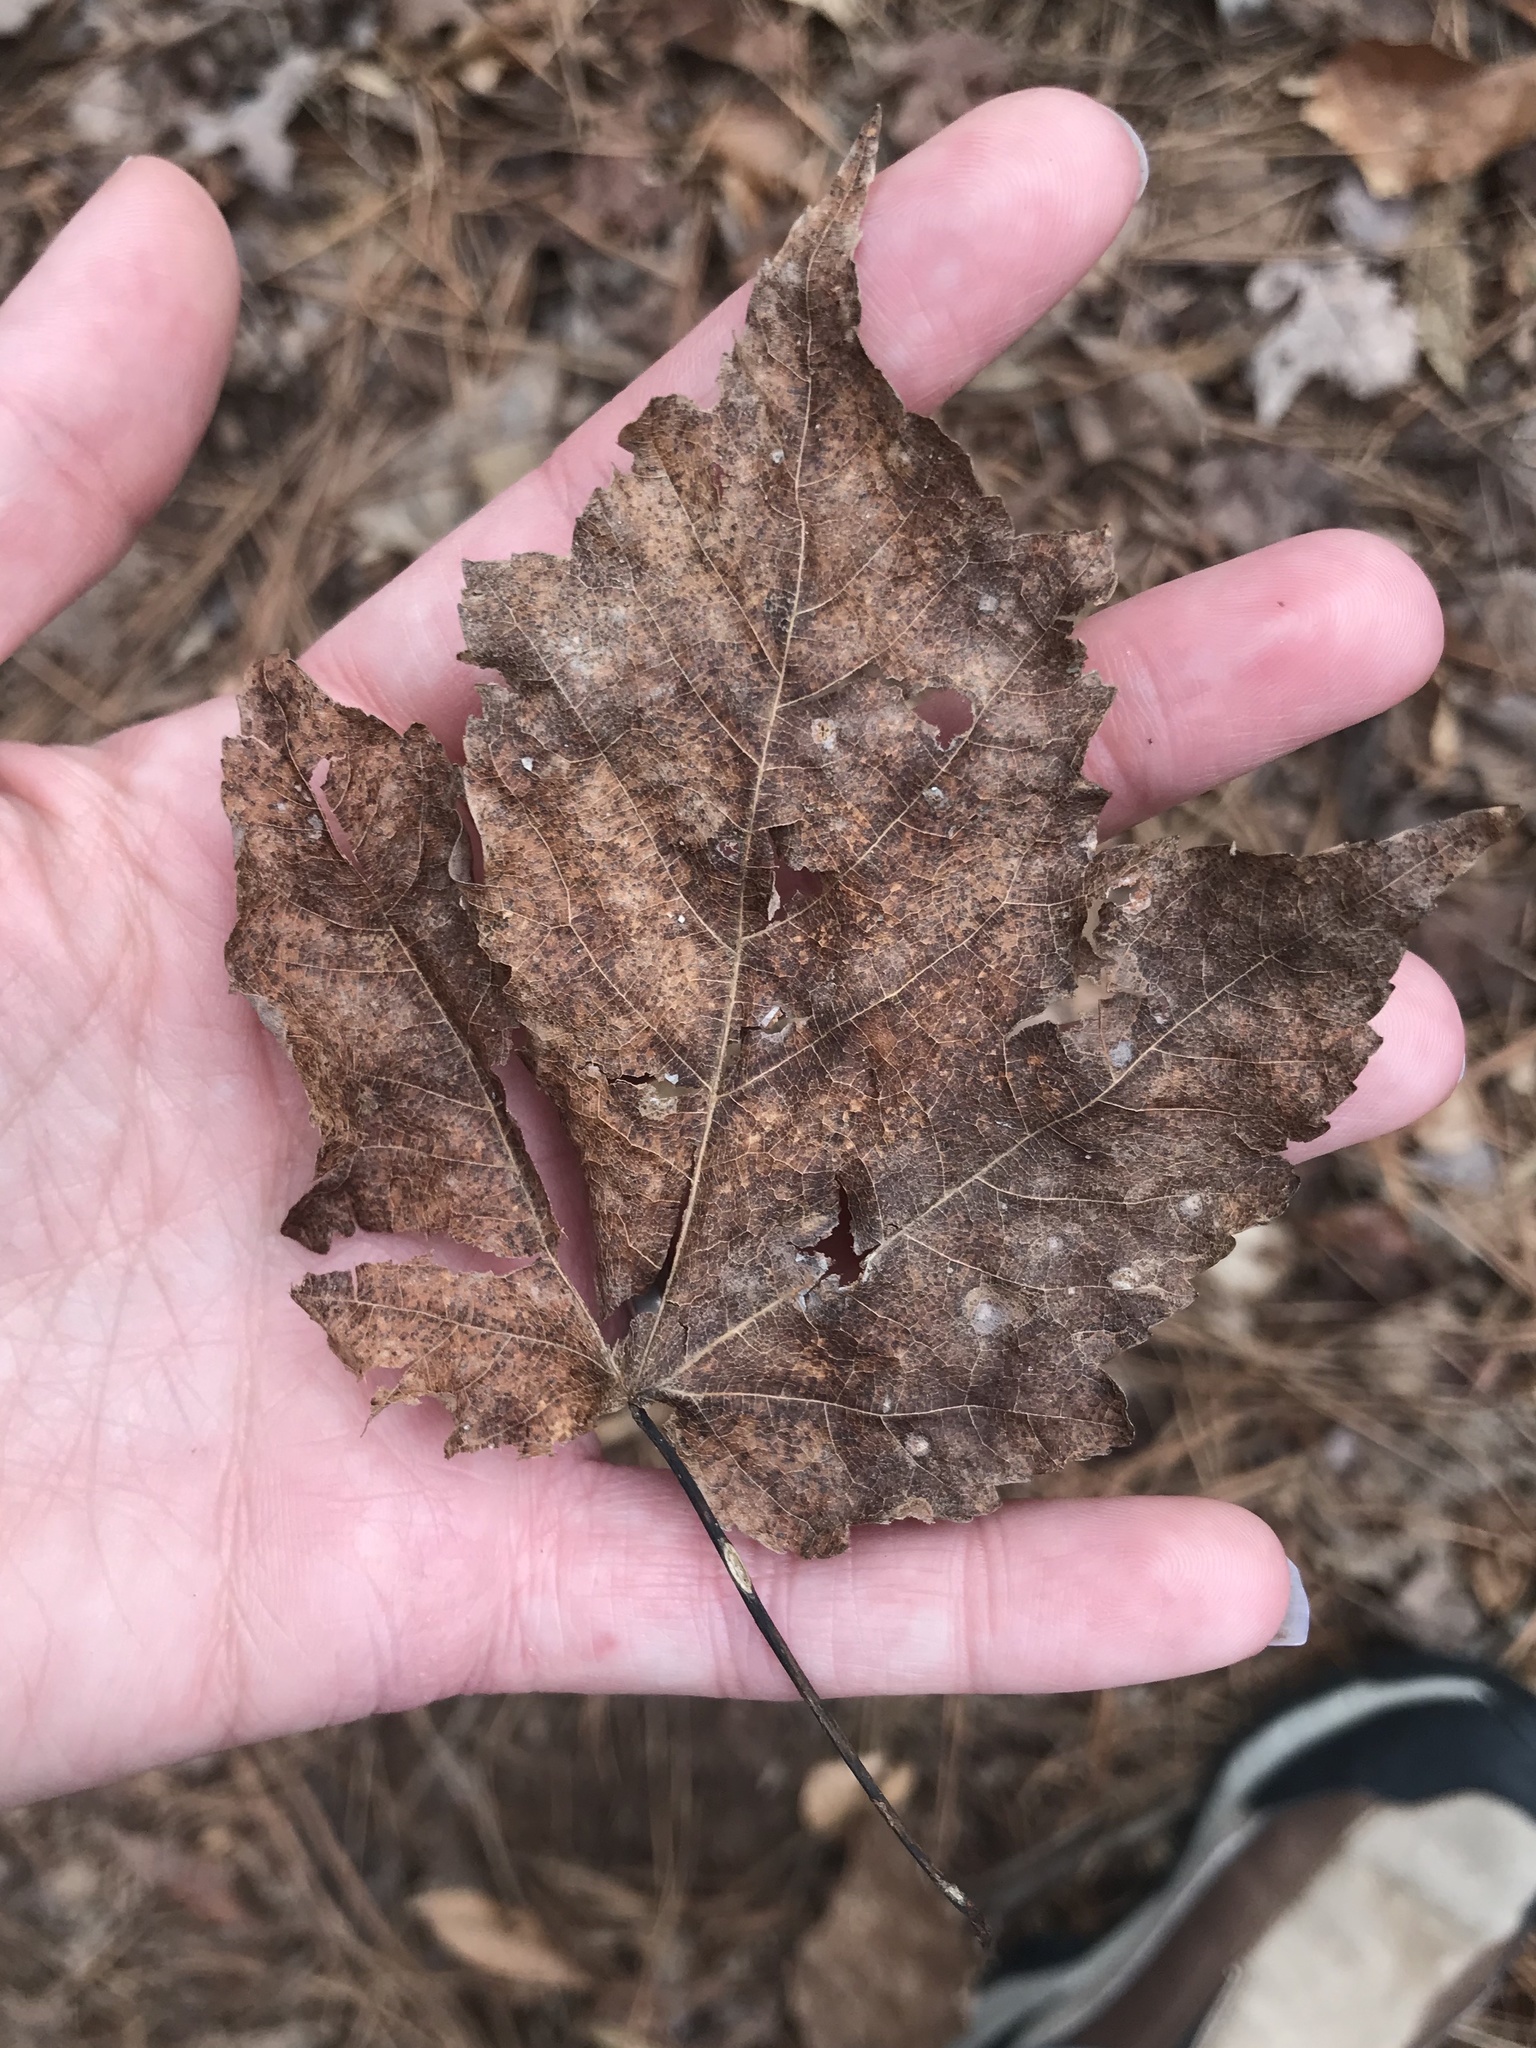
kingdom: Plantae
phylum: Tracheophyta
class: Magnoliopsida
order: Sapindales
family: Sapindaceae
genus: Acer
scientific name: Acer rubrum
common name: Red maple
